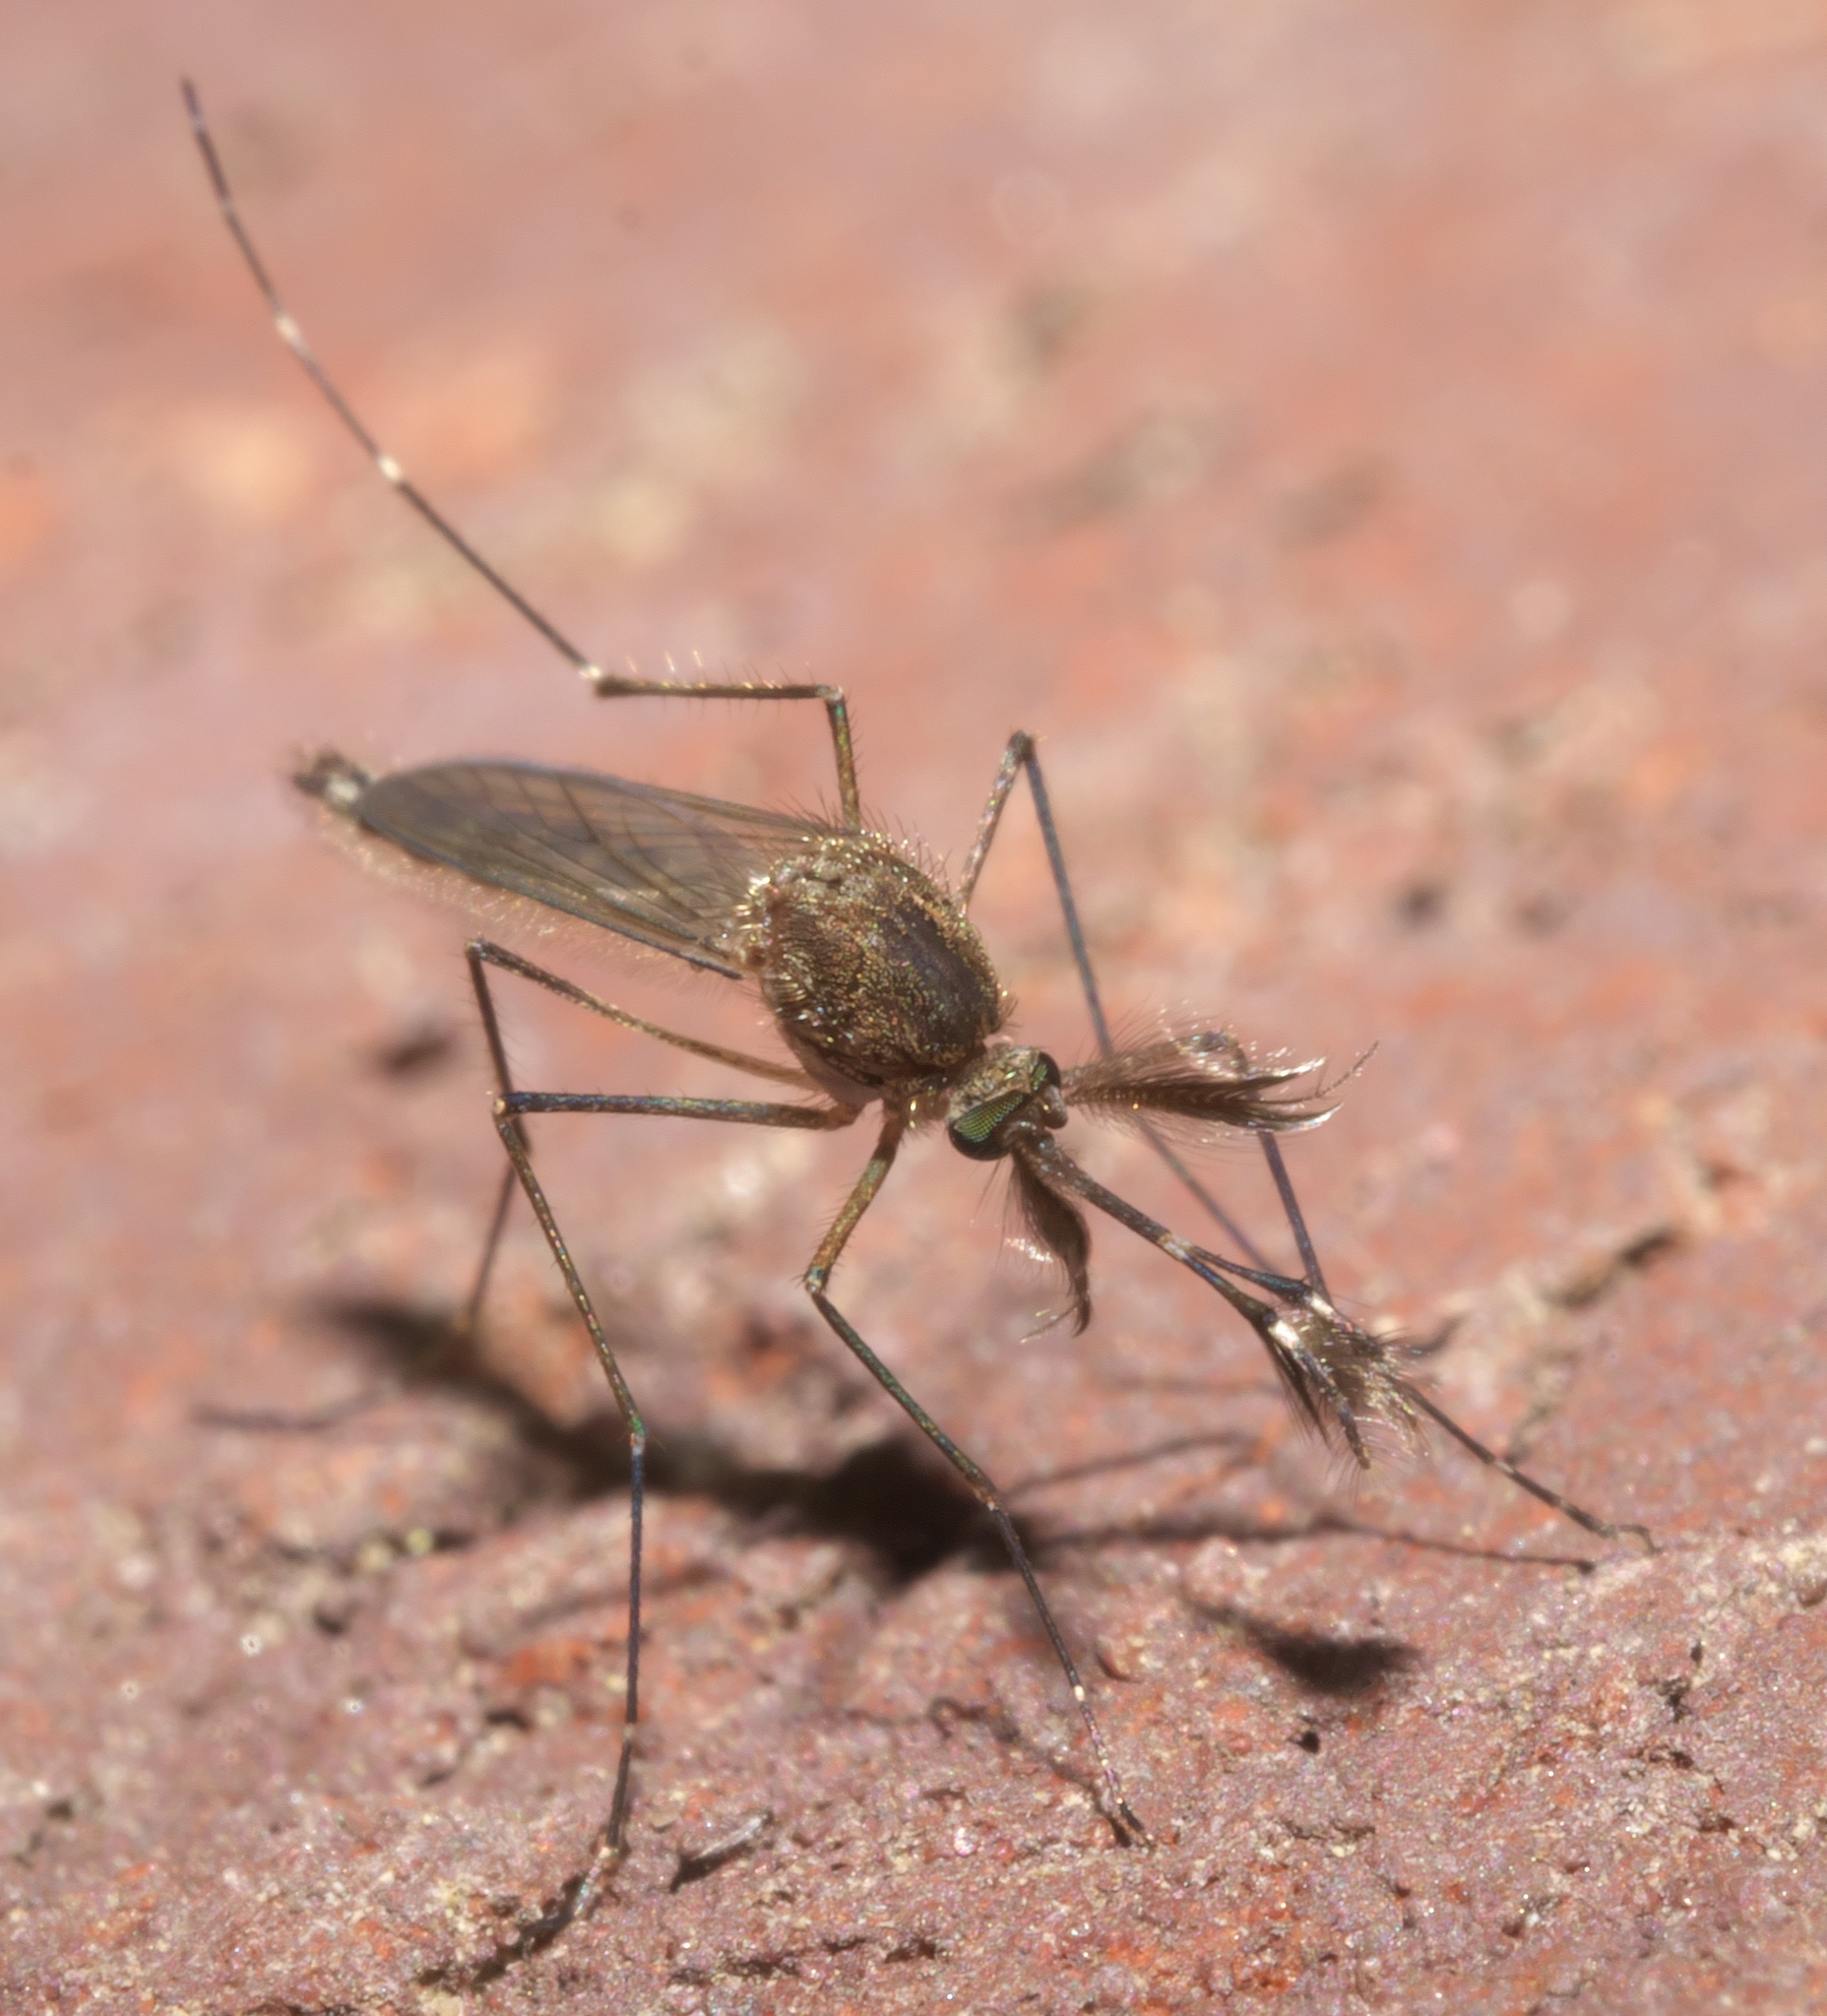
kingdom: Animalia
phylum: Arthropoda
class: Insecta
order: Diptera
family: Culicidae
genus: Aedes
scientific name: Aedes vexans
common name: Inland floodwater mosquito
